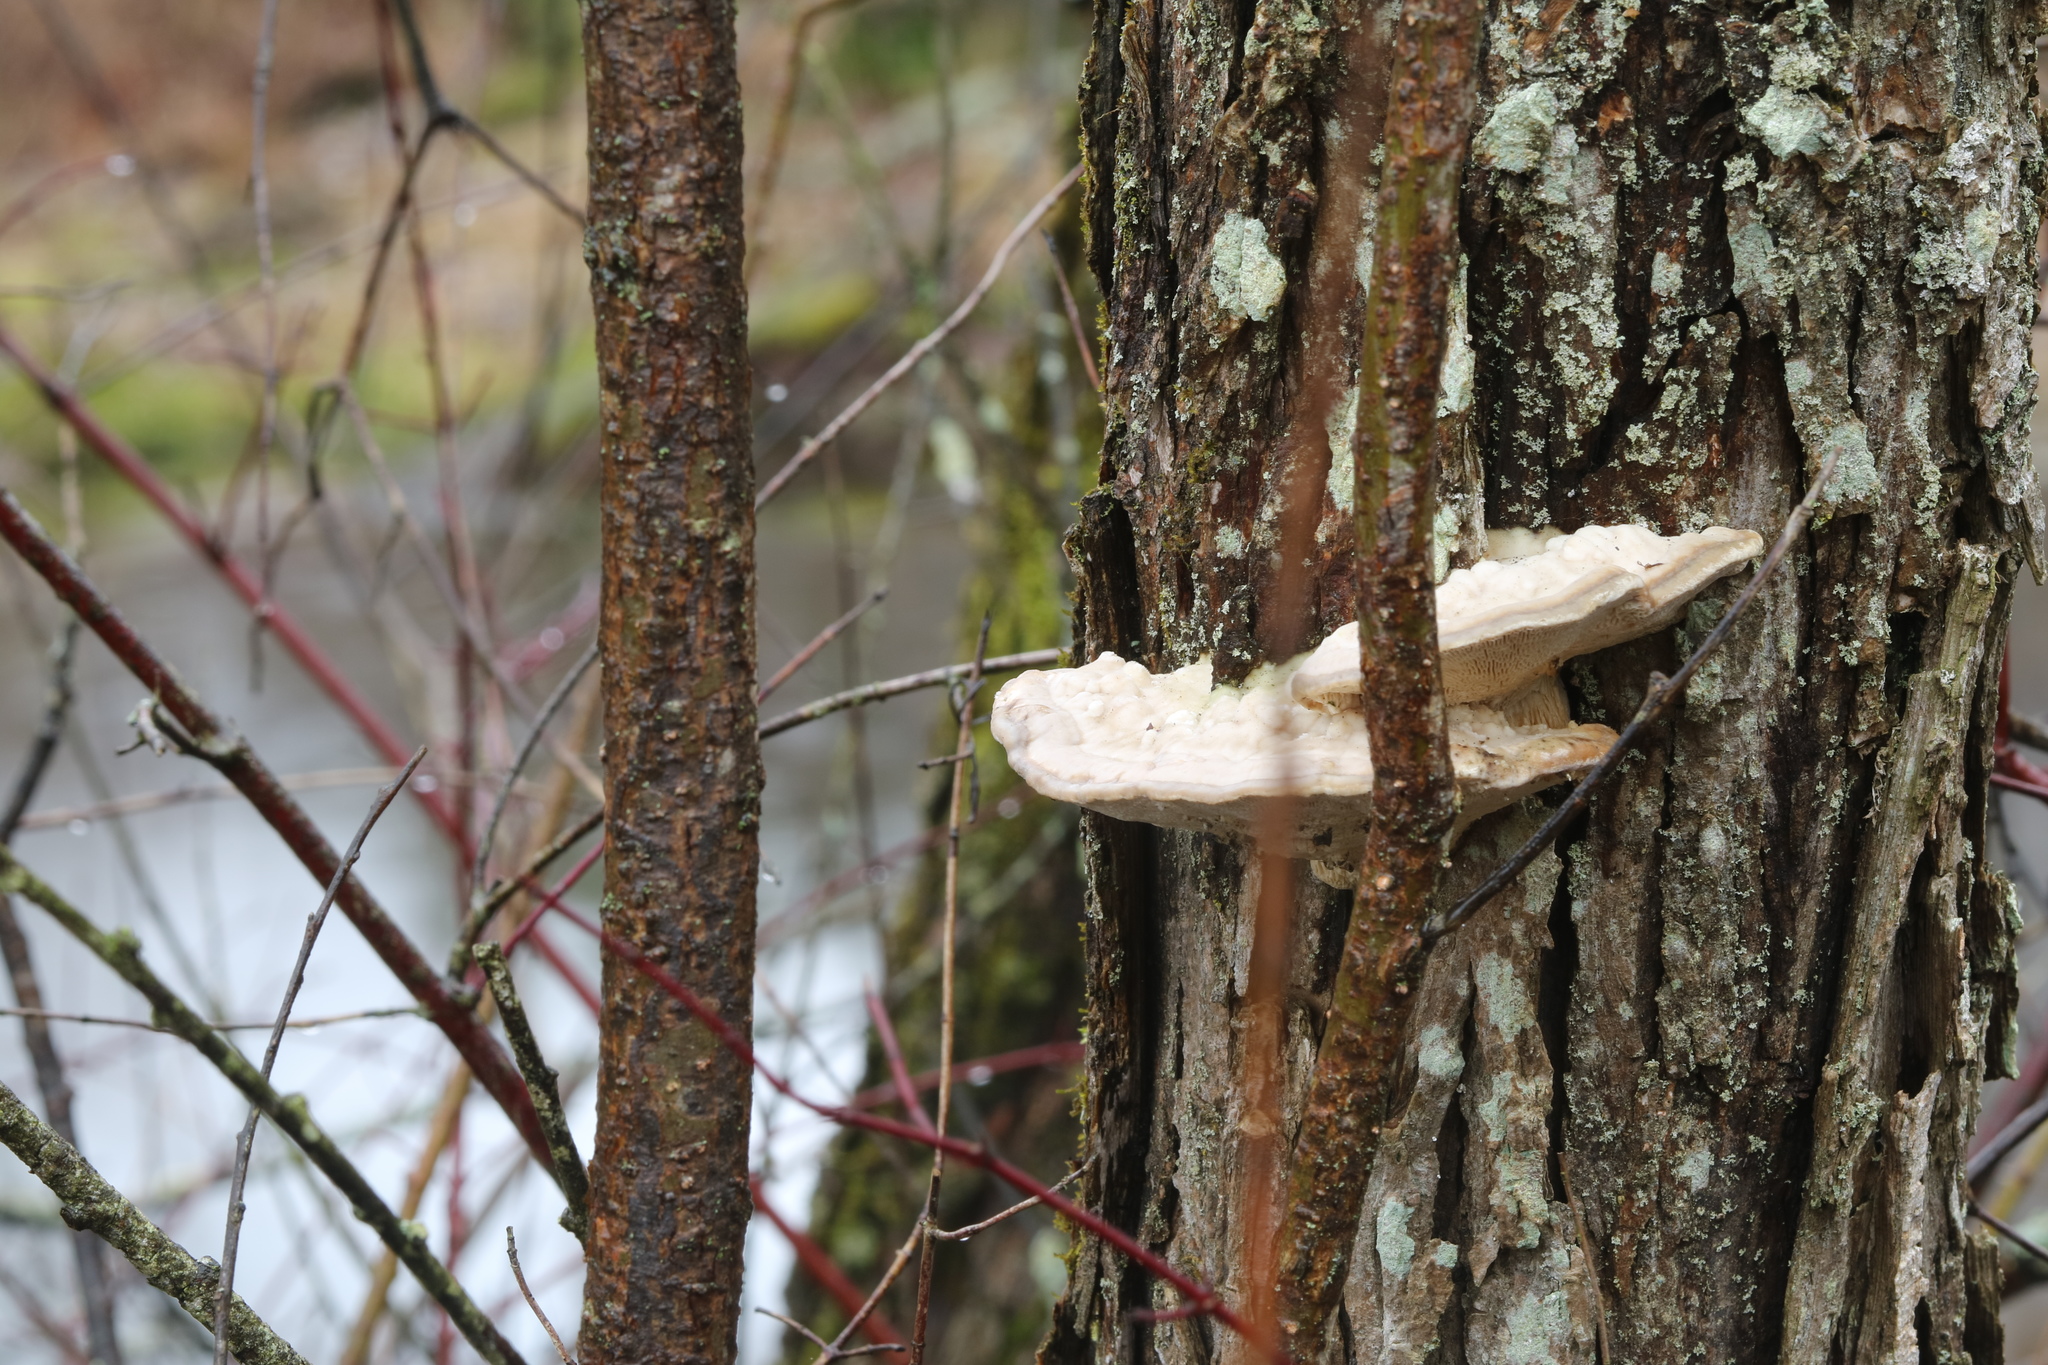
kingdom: Fungi
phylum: Basidiomycota
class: Agaricomycetes
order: Polyporales
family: Polyporaceae
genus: Trametes
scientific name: Trametes gibbosa
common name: Lumpy bracket
